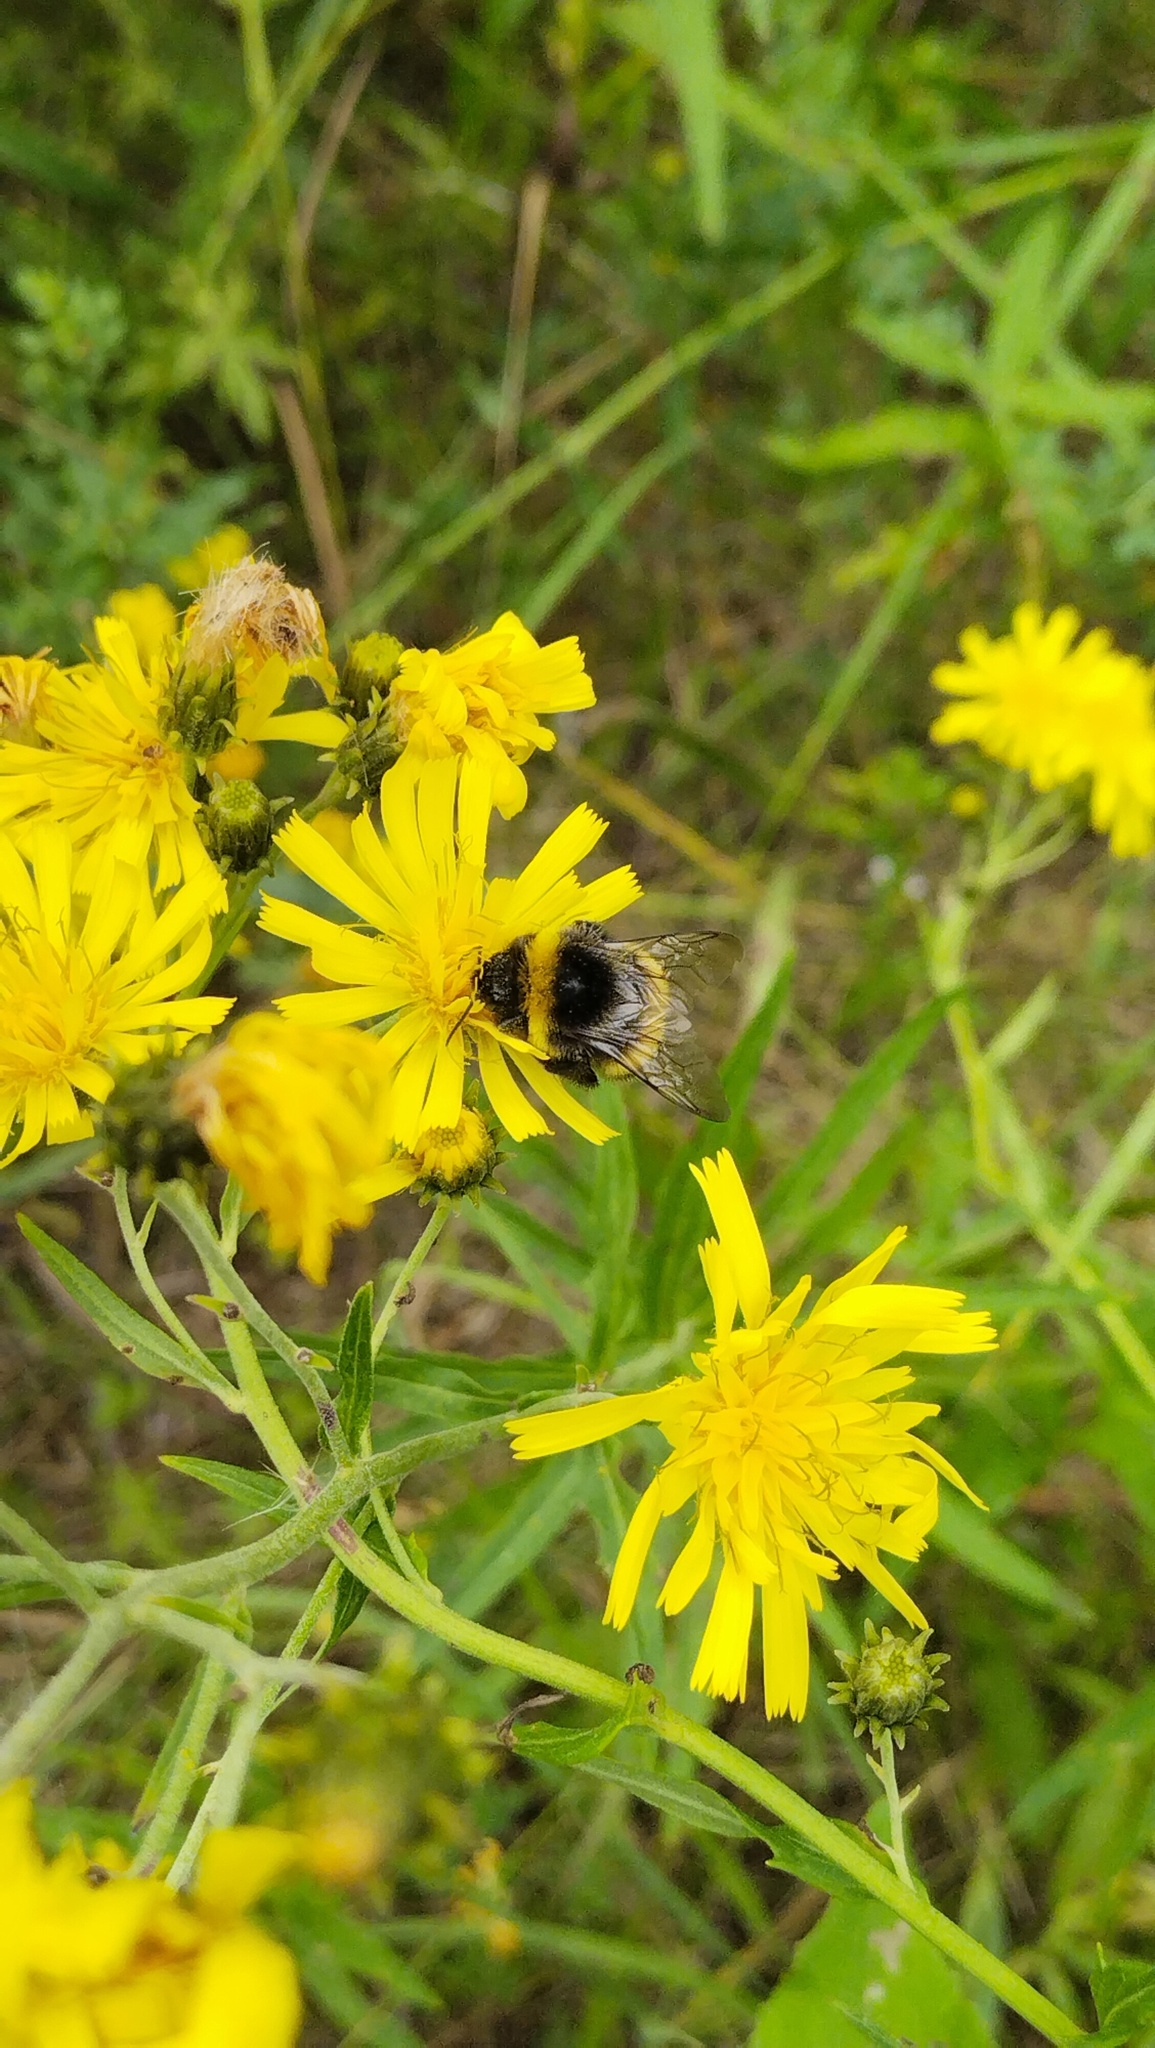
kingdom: Animalia
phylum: Arthropoda
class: Insecta
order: Hymenoptera
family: Apidae
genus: Bombus
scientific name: Bombus
